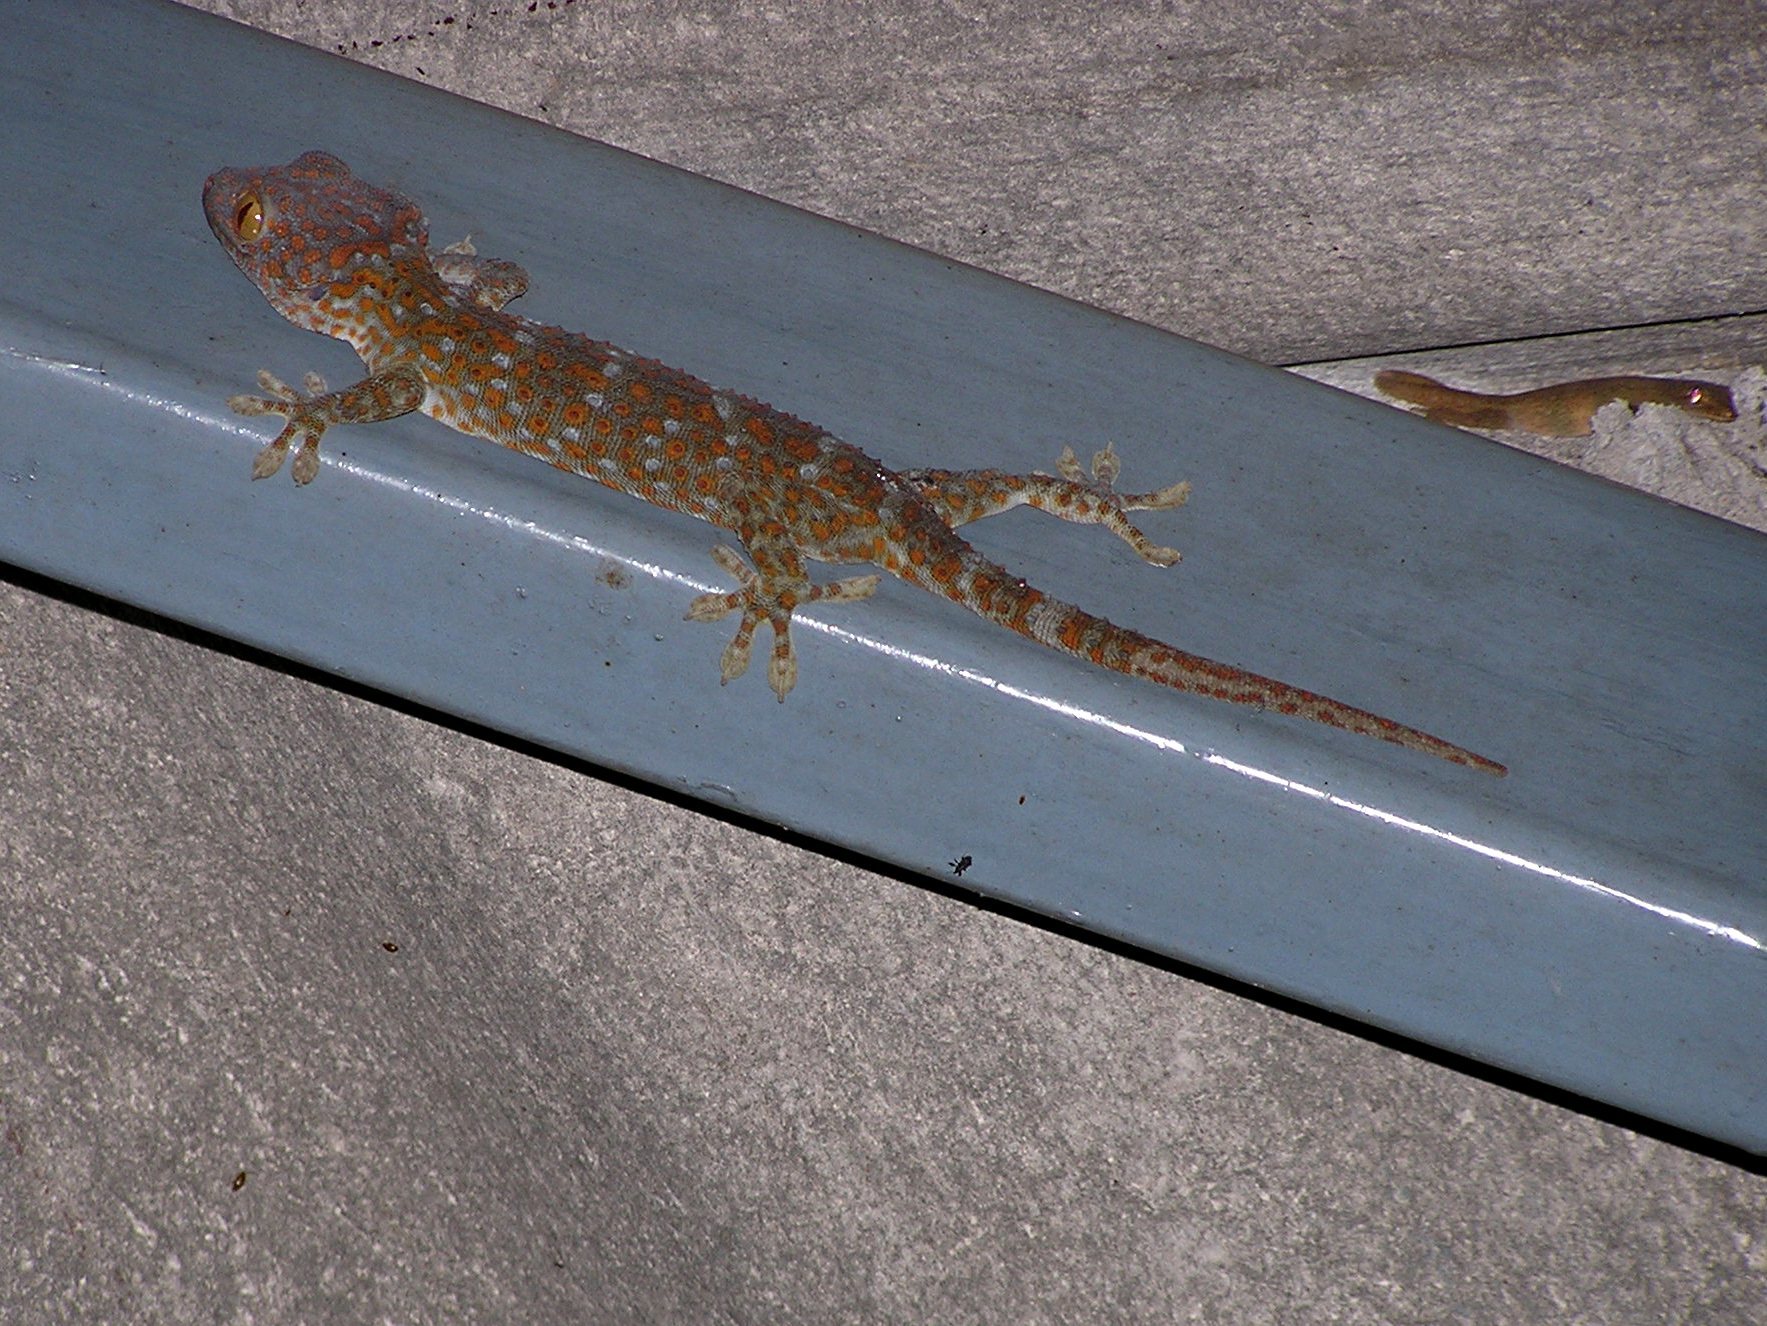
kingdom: Animalia
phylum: Chordata
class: Squamata
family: Gekkonidae
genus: Gekko
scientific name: Gekko gecko
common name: Tokay gecko
